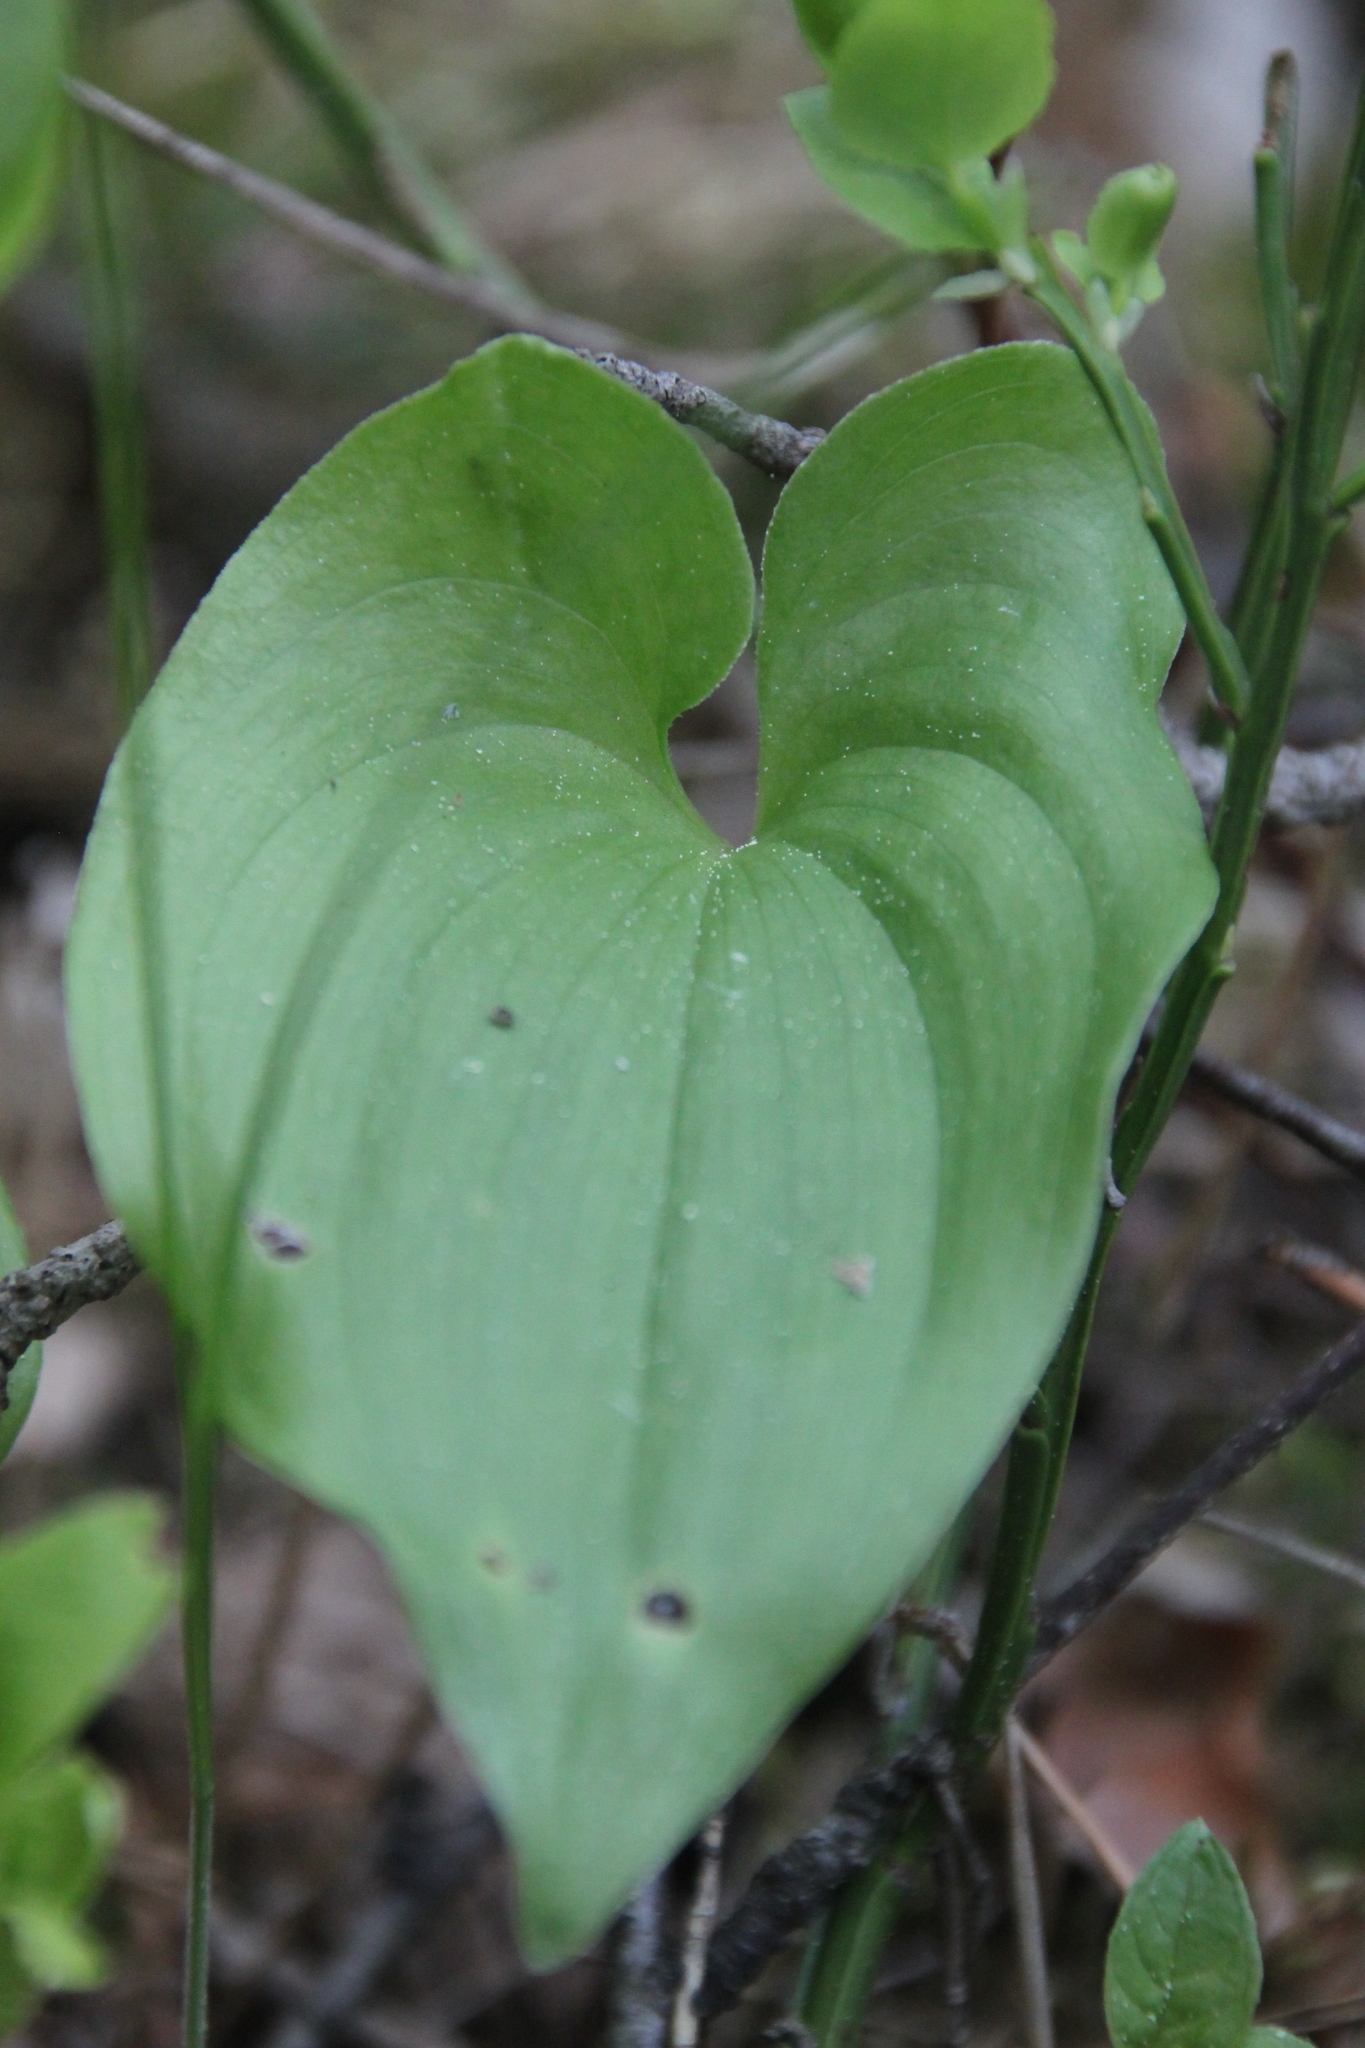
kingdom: Plantae
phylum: Tracheophyta
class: Liliopsida
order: Asparagales
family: Asparagaceae
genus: Maianthemum
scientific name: Maianthemum bifolium
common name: May lily
